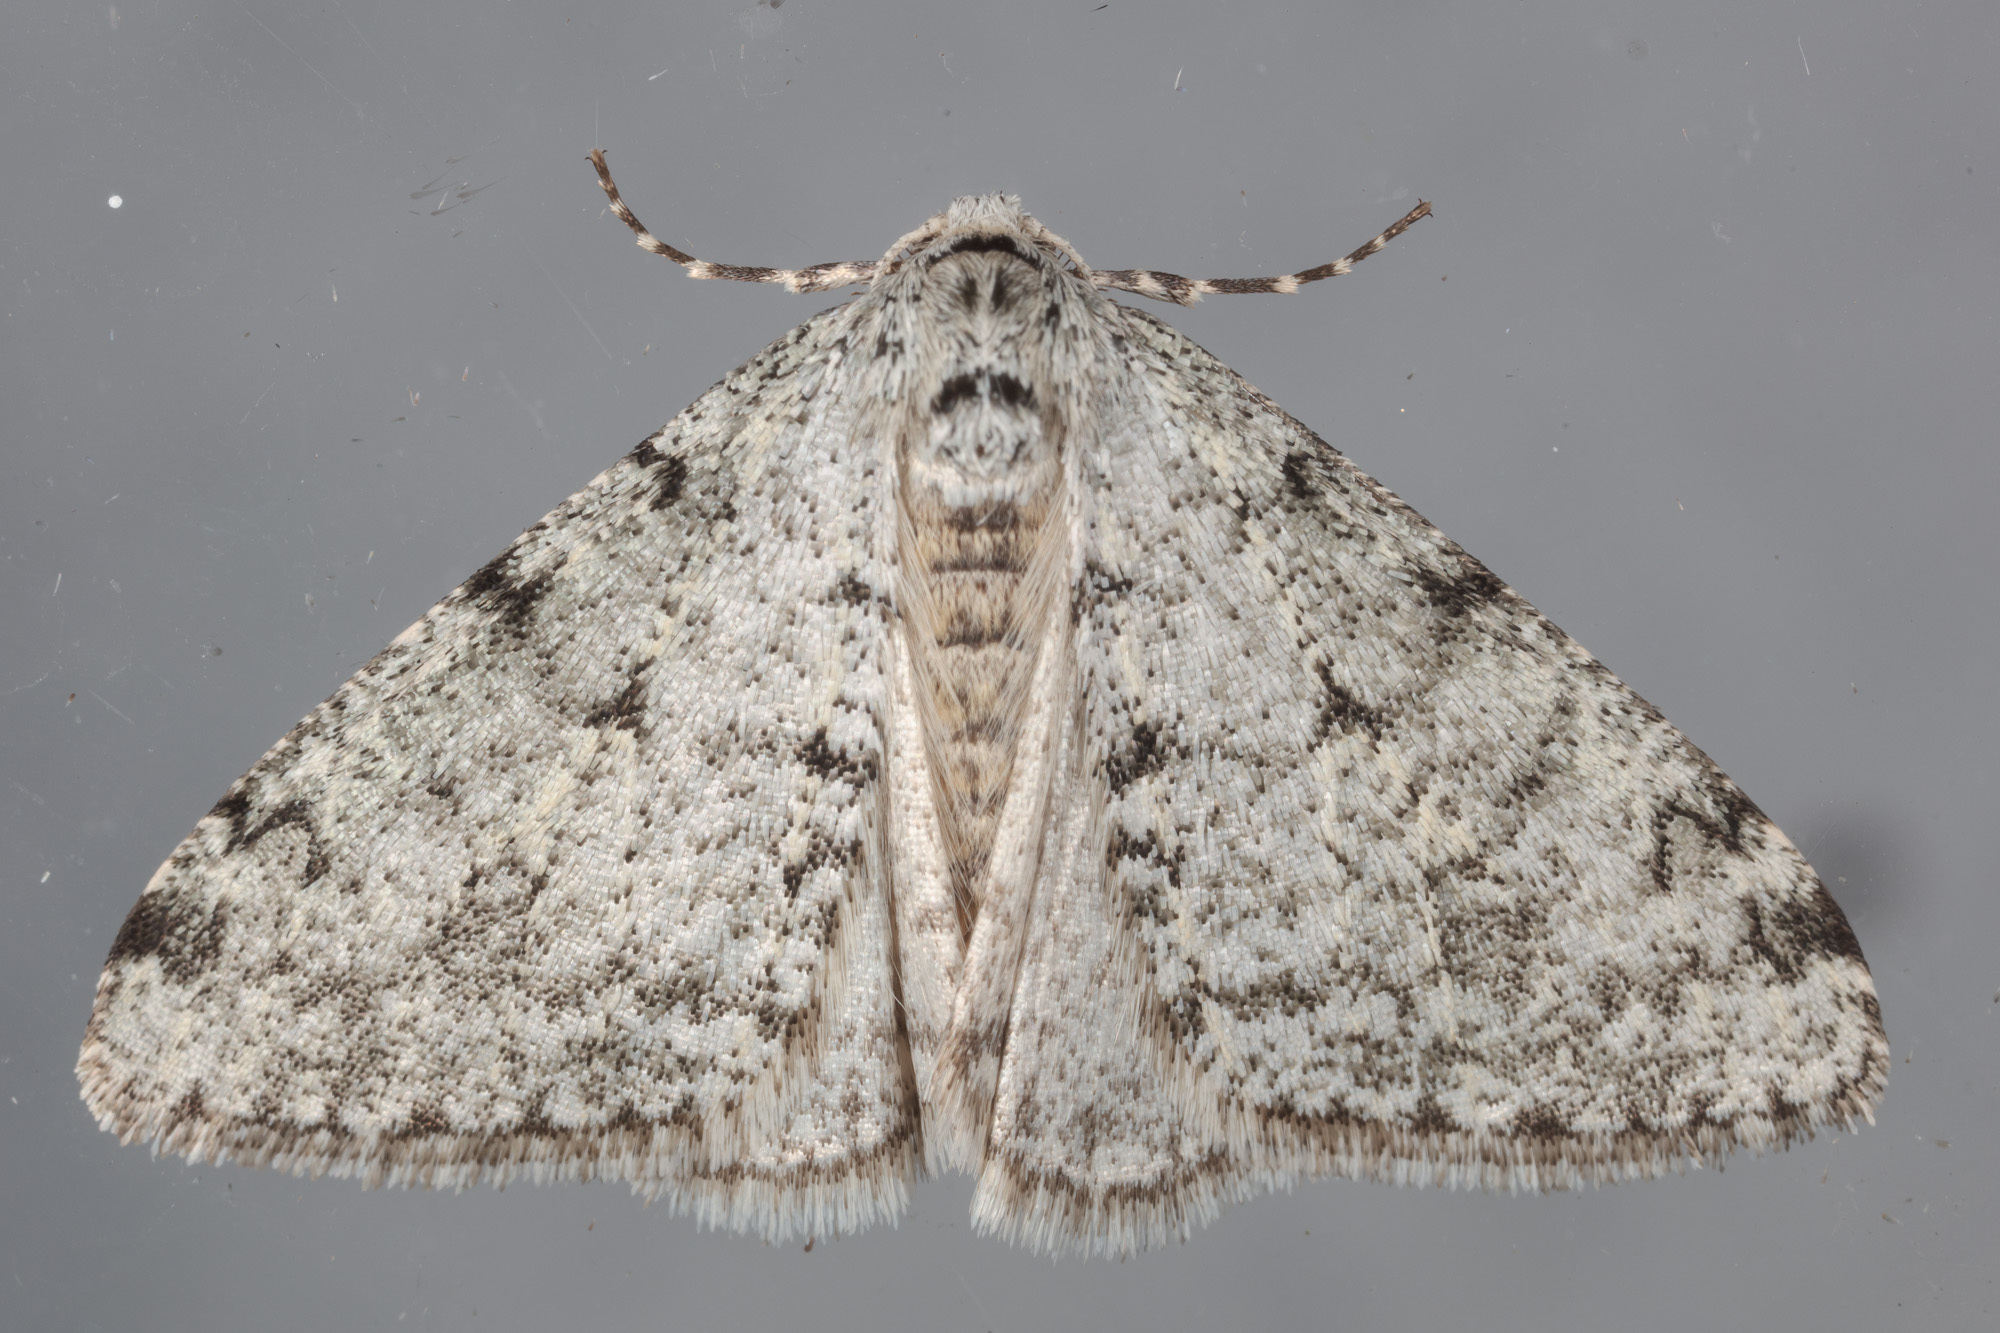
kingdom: Animalia
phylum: Arthropoda
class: Insecta
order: Lepidoptera
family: Geometridae
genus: Phigalia
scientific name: Phigalia strigataria
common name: Small phigalia
